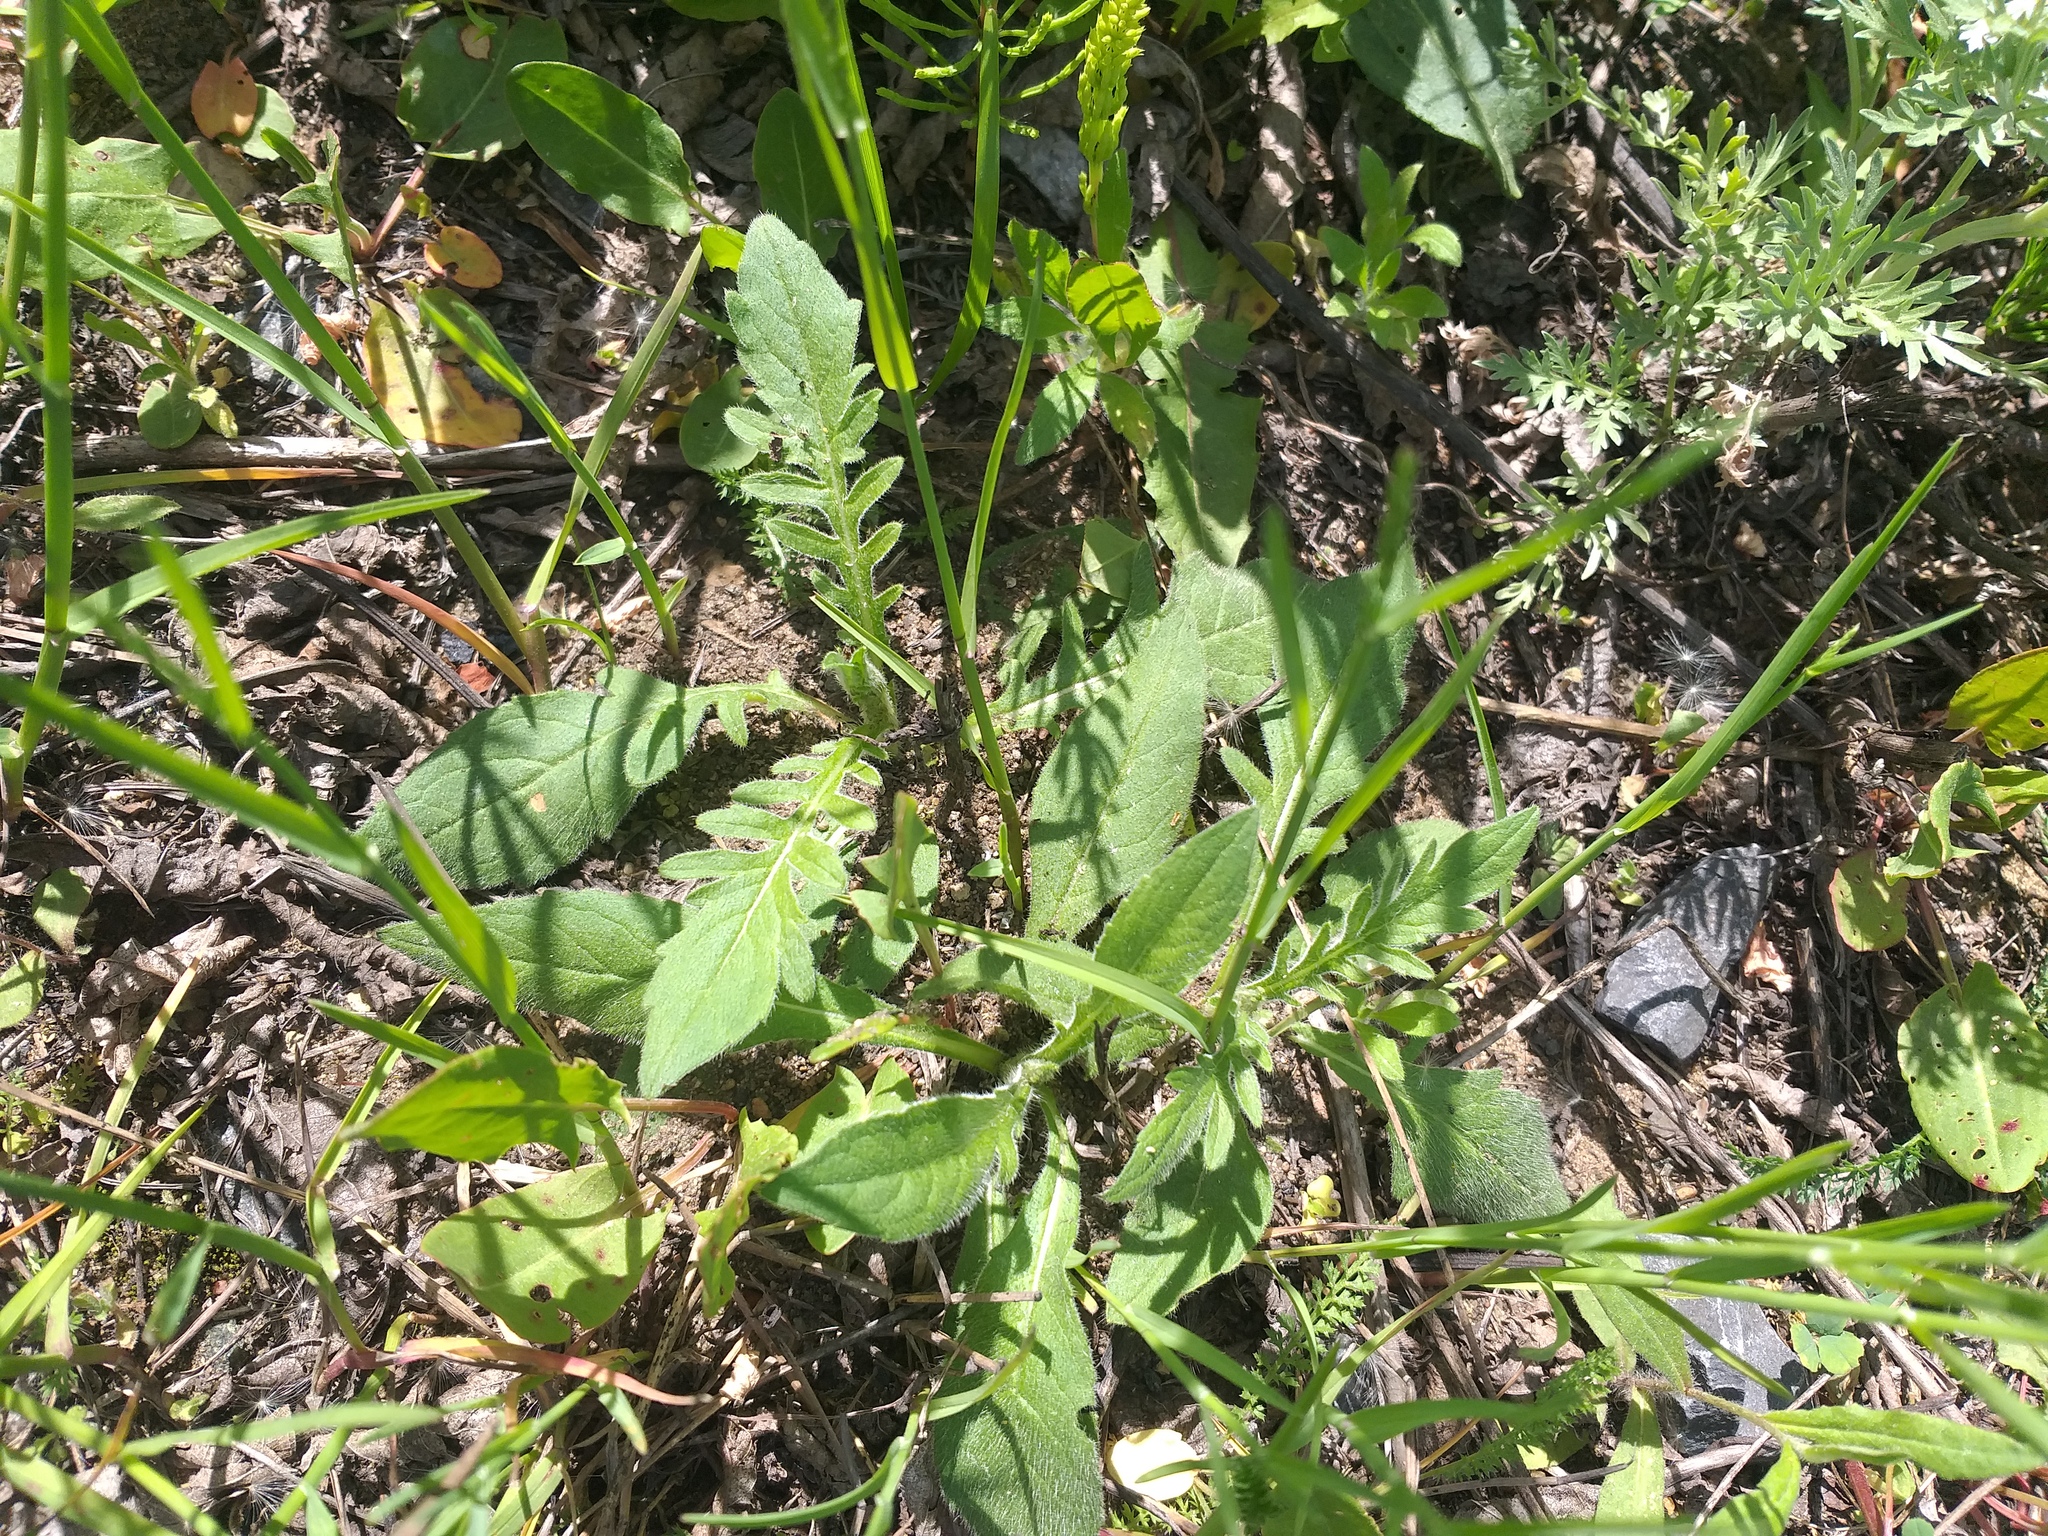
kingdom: Plantae
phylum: Tracheophyta
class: Magnoliopsida
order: Dipsacales
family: Caprifoliaceae
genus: Knautia
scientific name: Knautia arvensis
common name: Field scabiosa
